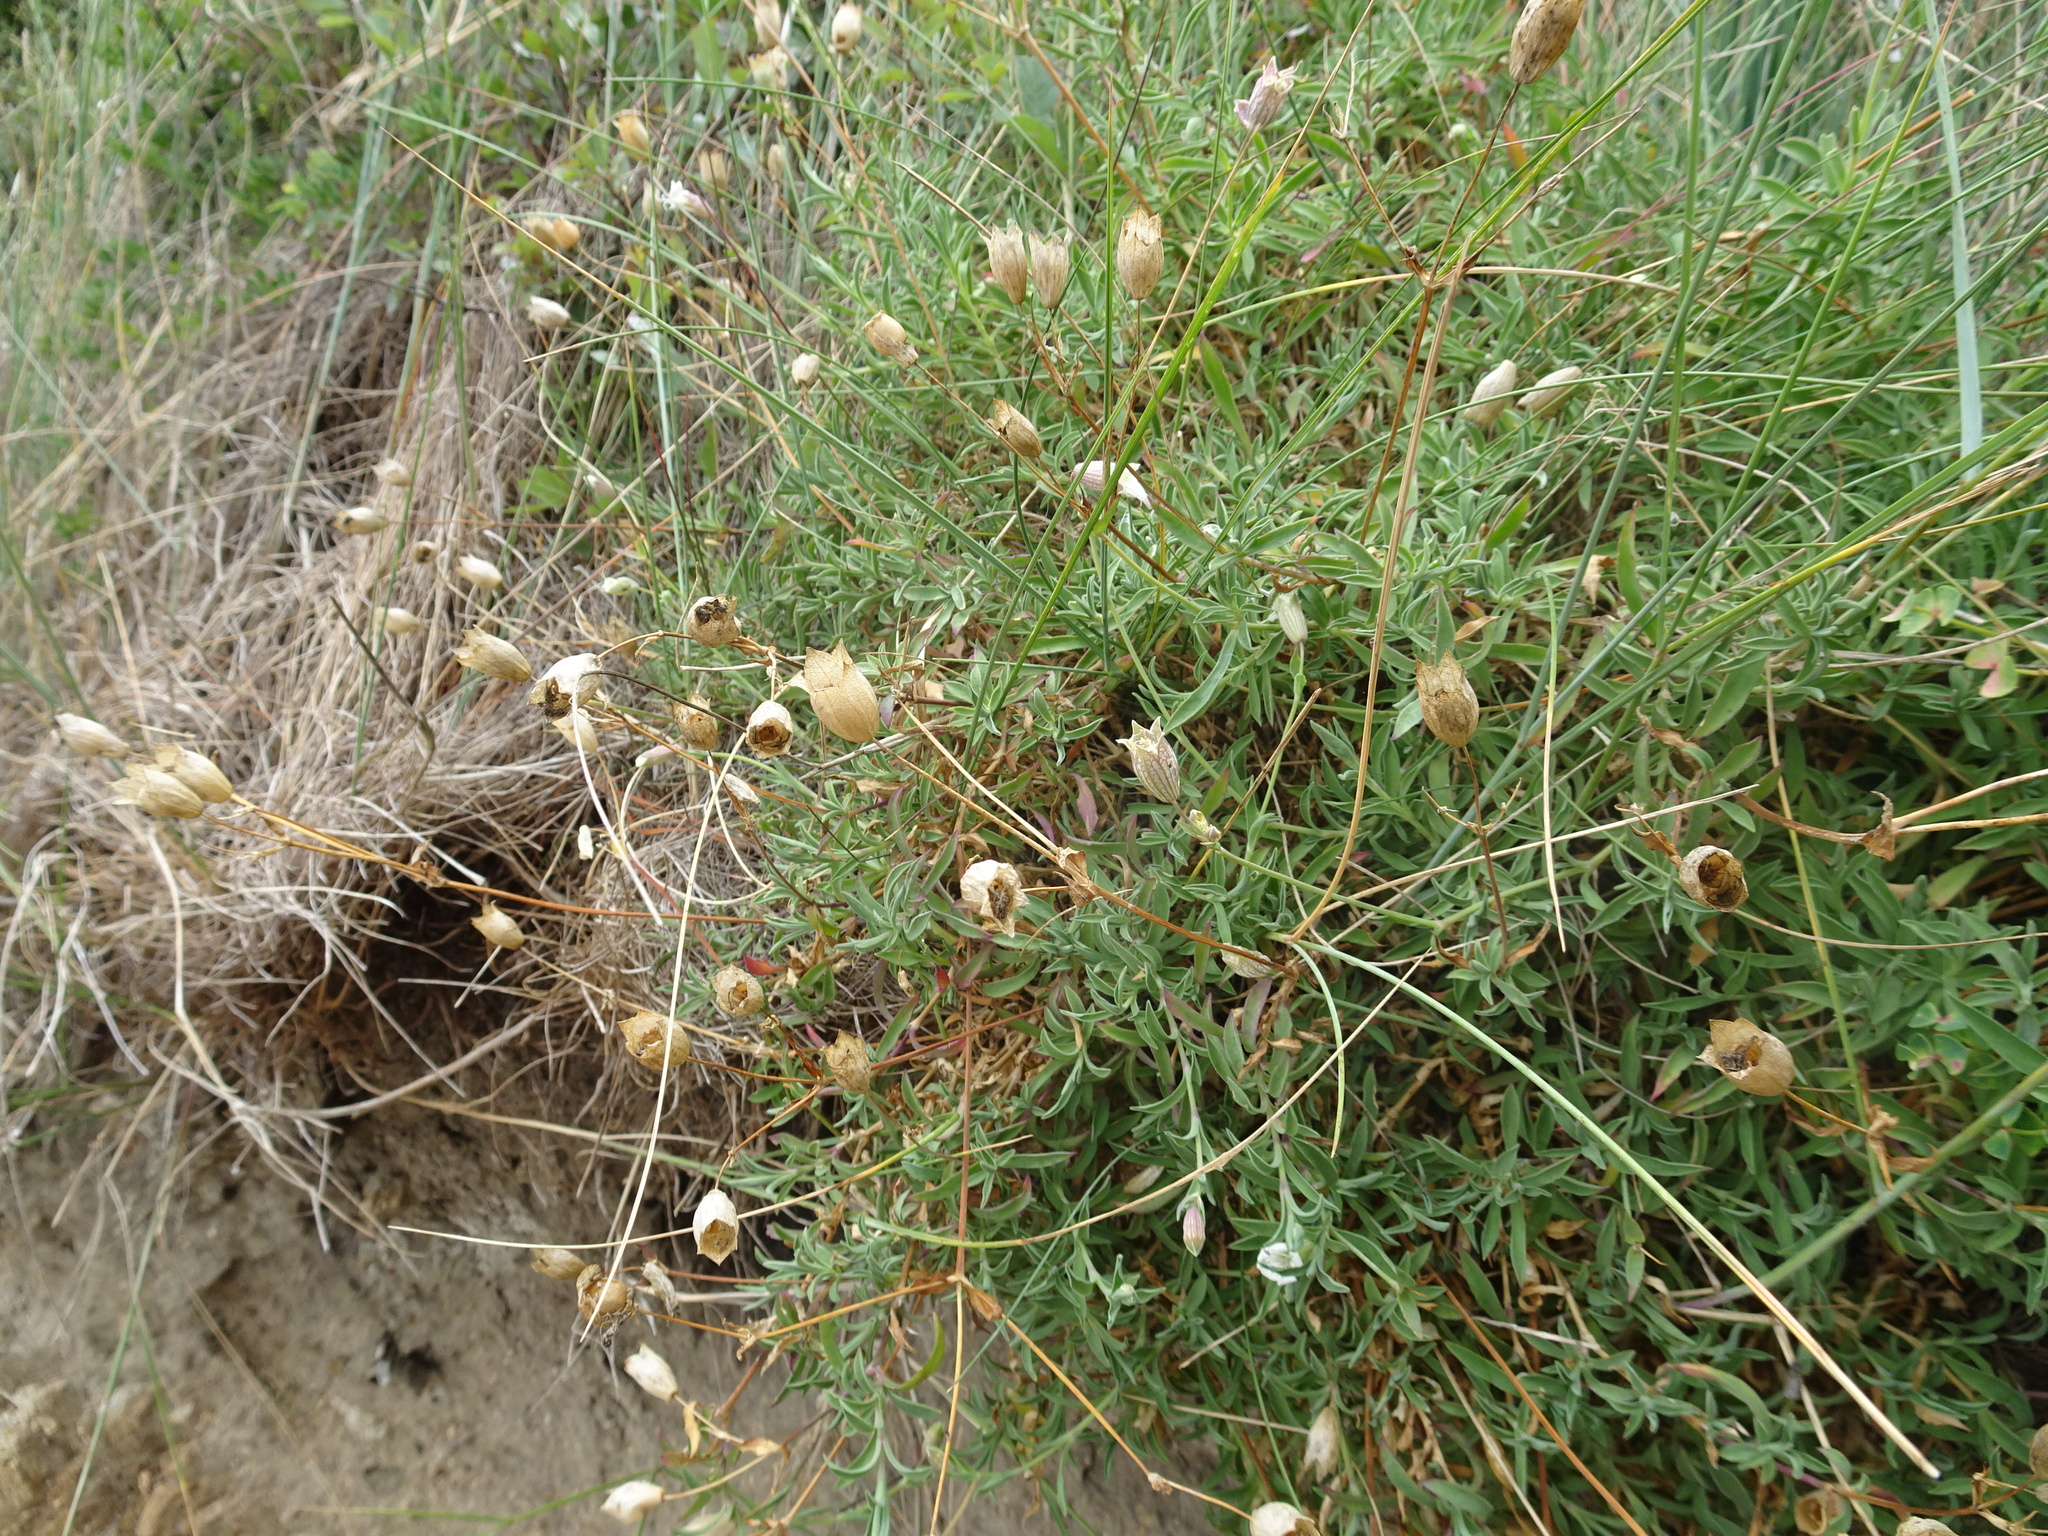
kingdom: Plantae
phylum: Tracheophyta
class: Magnoliopsida
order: Caryophyllales
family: Caryophyllaceae
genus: Silene
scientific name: Silene uniflora
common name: Sea campion
